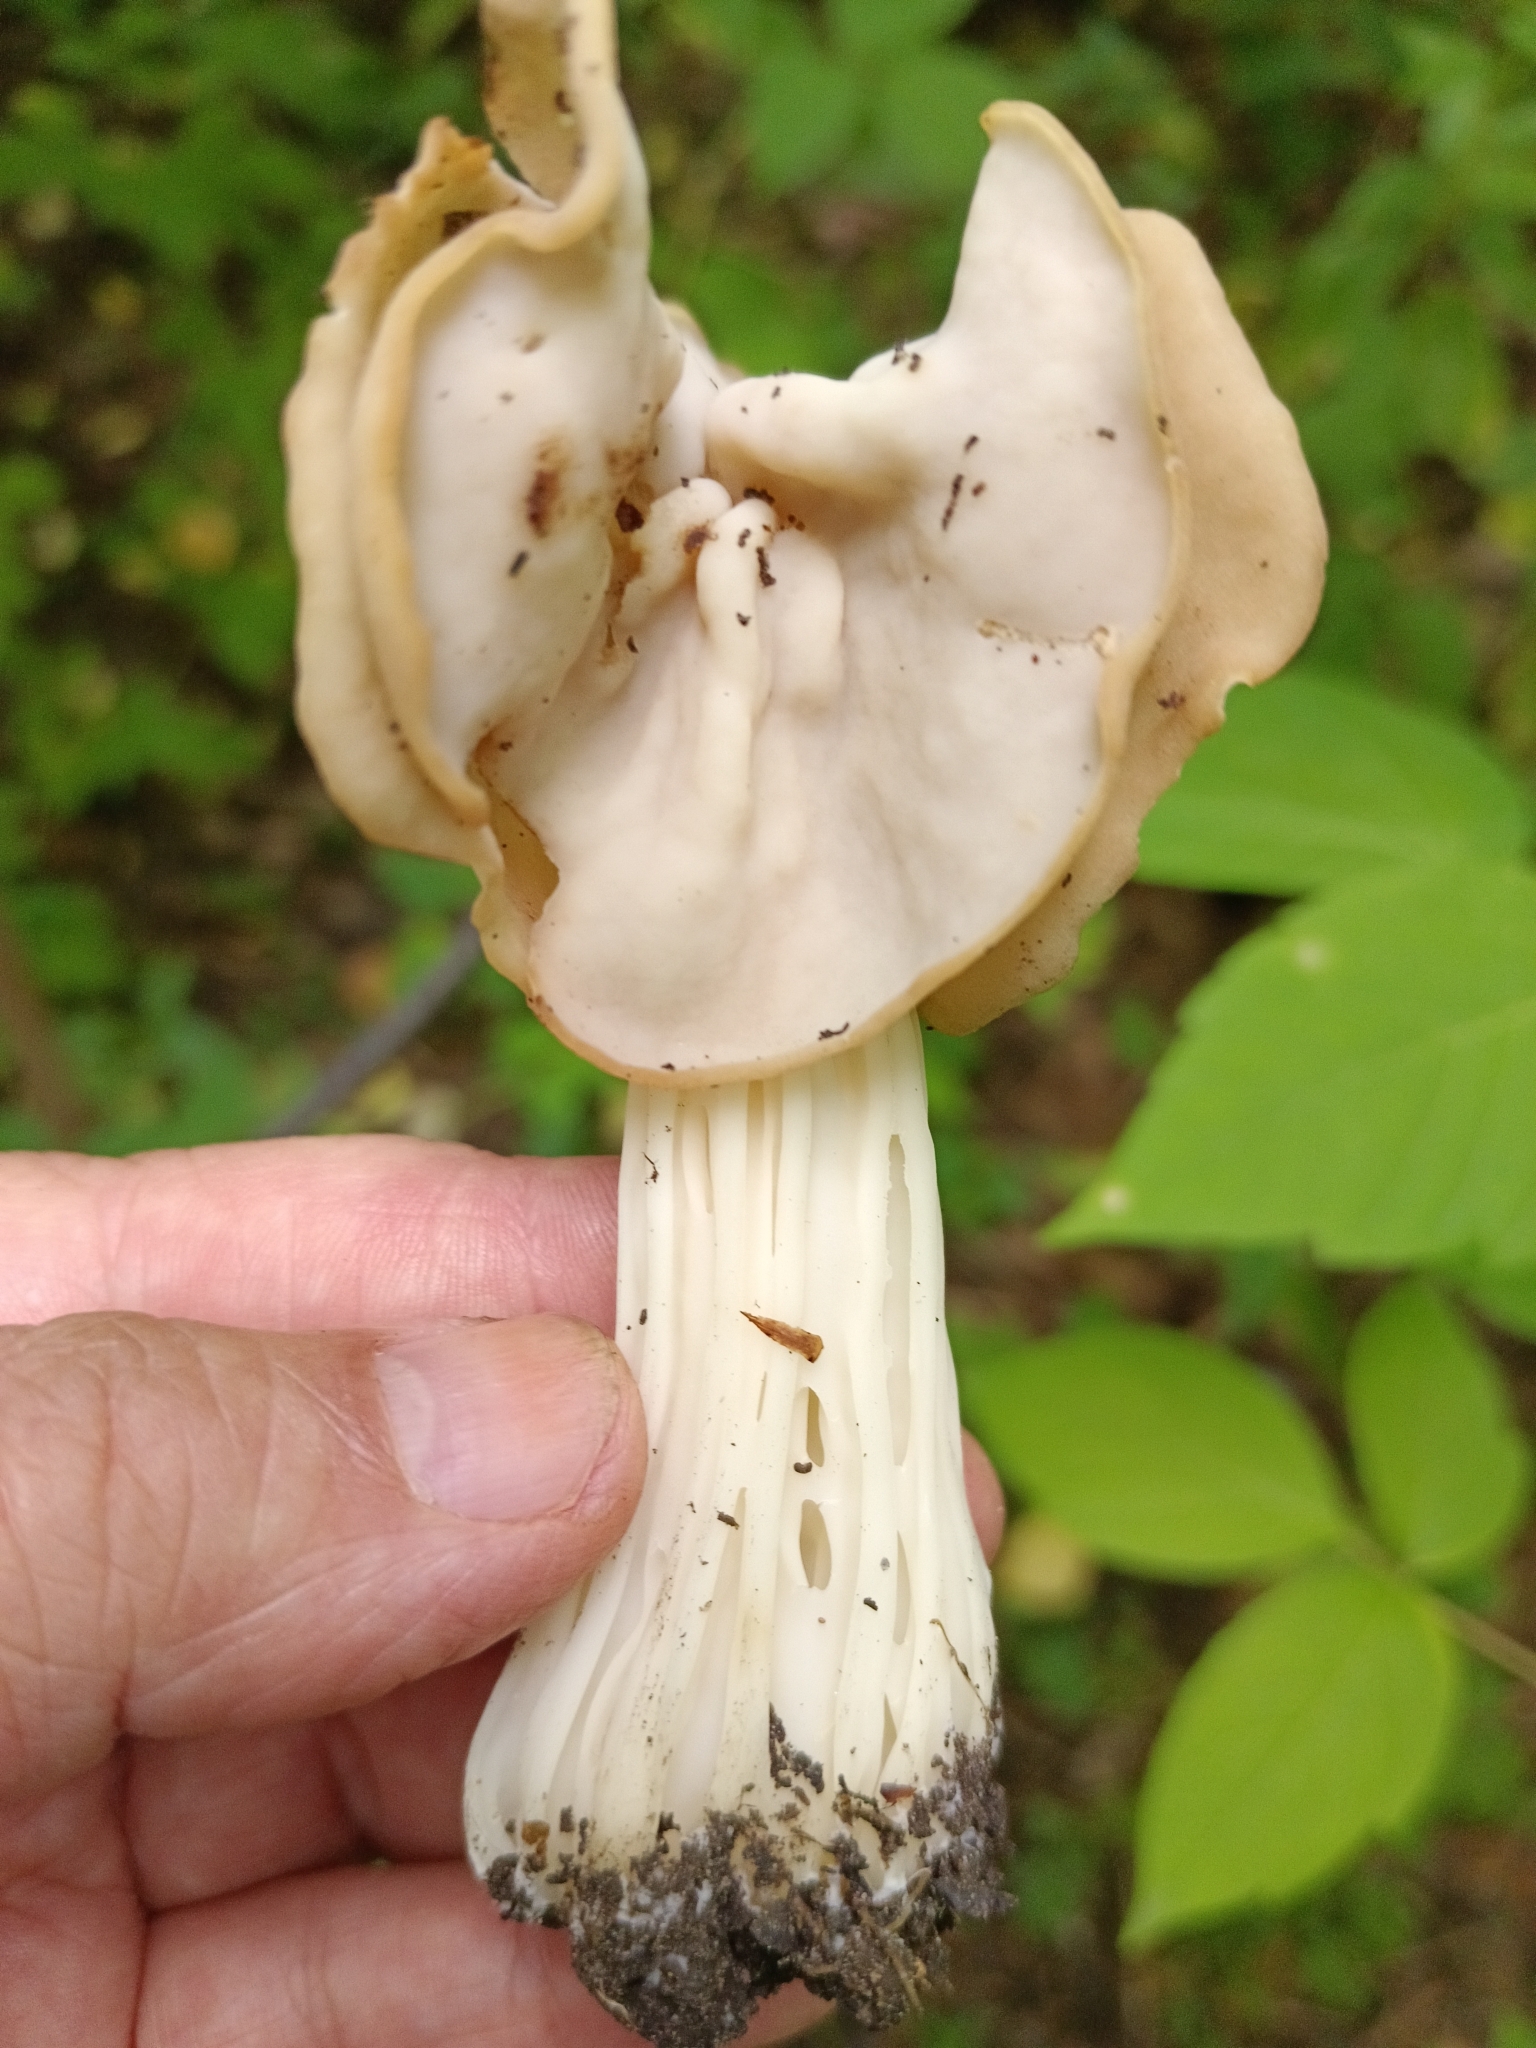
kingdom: Fungi
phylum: Ascomycota
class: Pezizomycetes
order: Pezizales
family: Helvellaceae
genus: Helvella
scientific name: Helvella crispa
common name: White saddle
